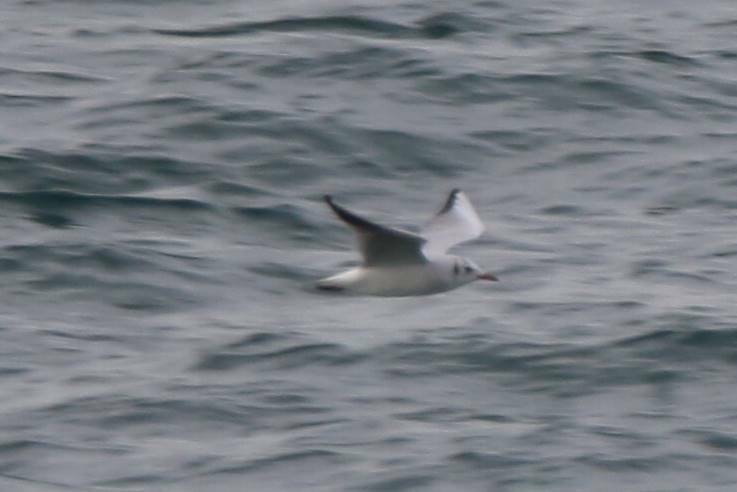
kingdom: Animalia
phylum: Chordata
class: Aves
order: Charadriiformes
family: Laridae
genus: Chroicocephalus
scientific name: Chroicocephalus ridibundus
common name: Black-headed gull
